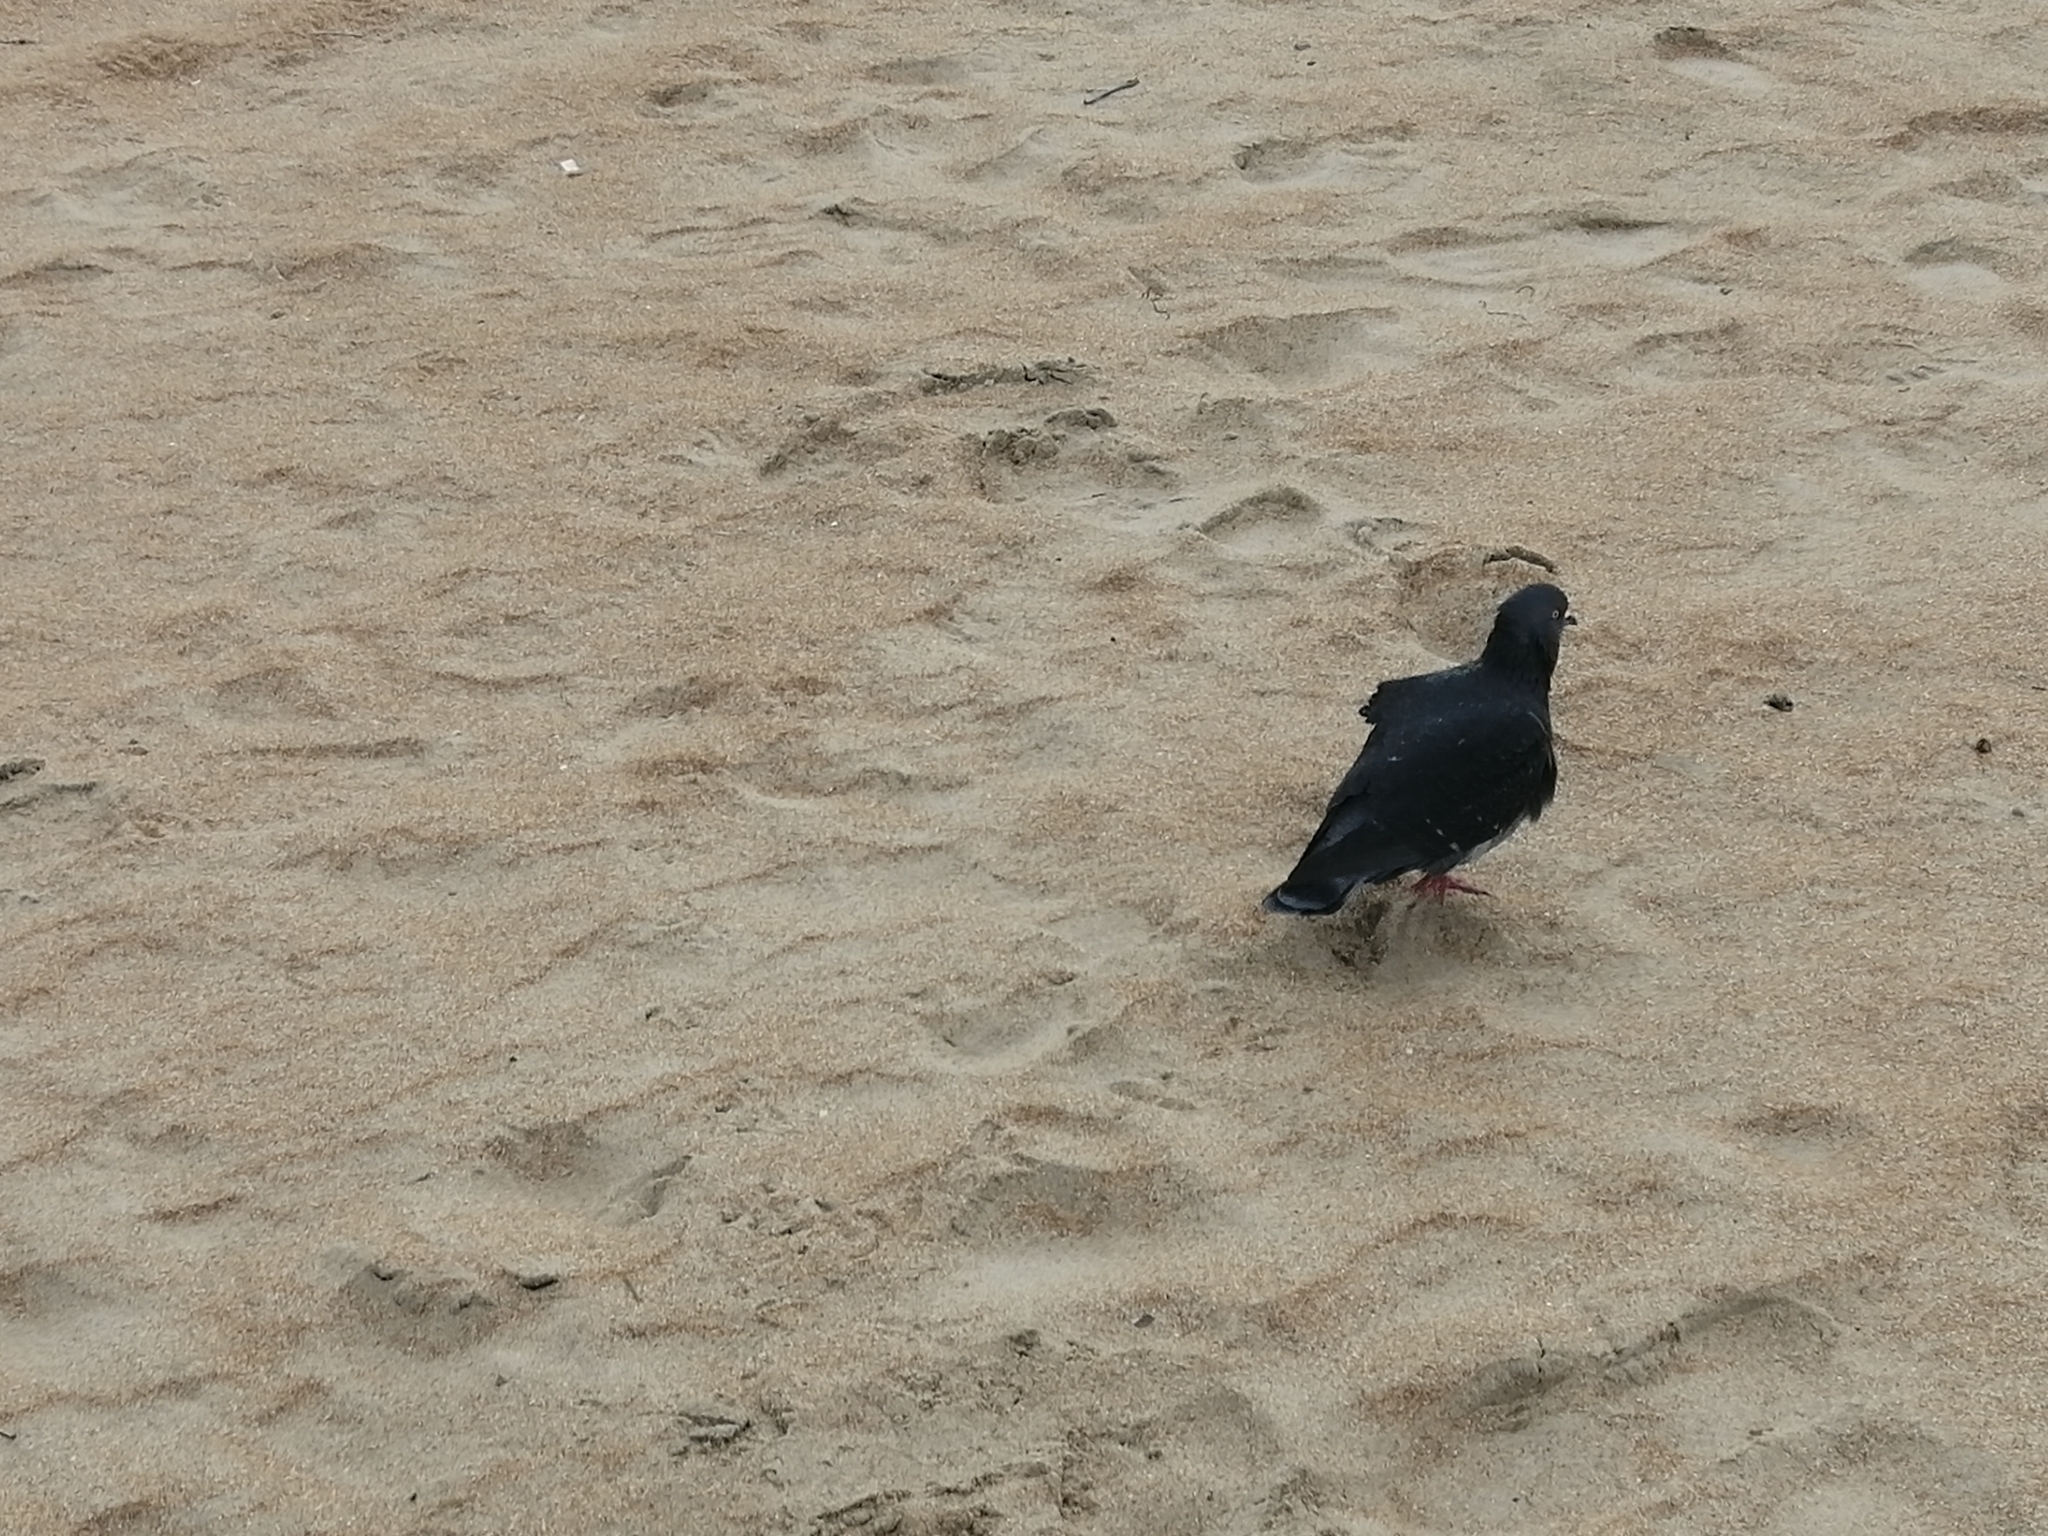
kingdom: Animalia
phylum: Chordata
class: Aves
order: Columbiformes
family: Columbidae
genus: Columba
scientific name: Columba livia
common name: Rock pigeon
